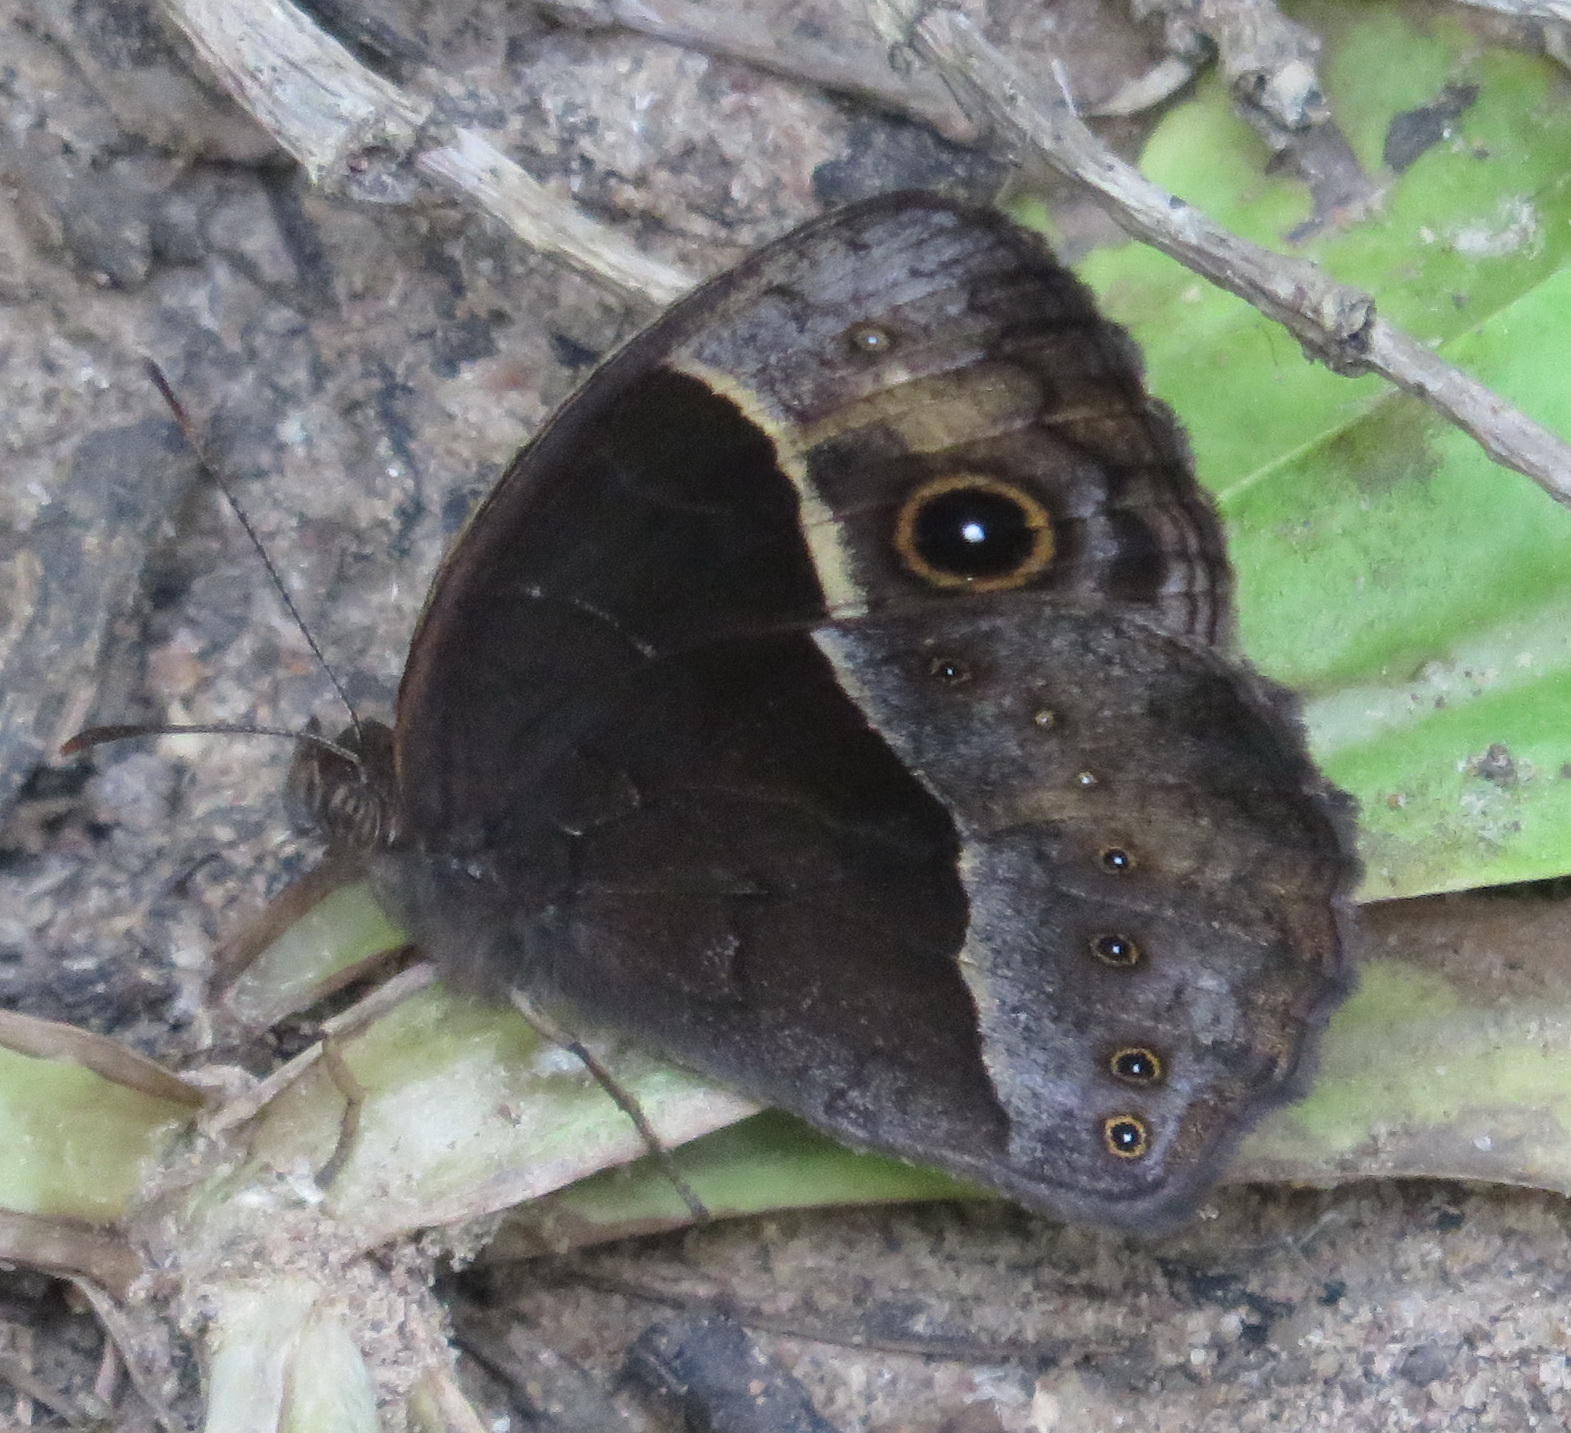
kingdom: Animalia
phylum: Arthropoda
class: Insecta
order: Lepidoptera
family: Nymphalidae
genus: Mycalesis
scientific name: Mycalesis rhacotis
